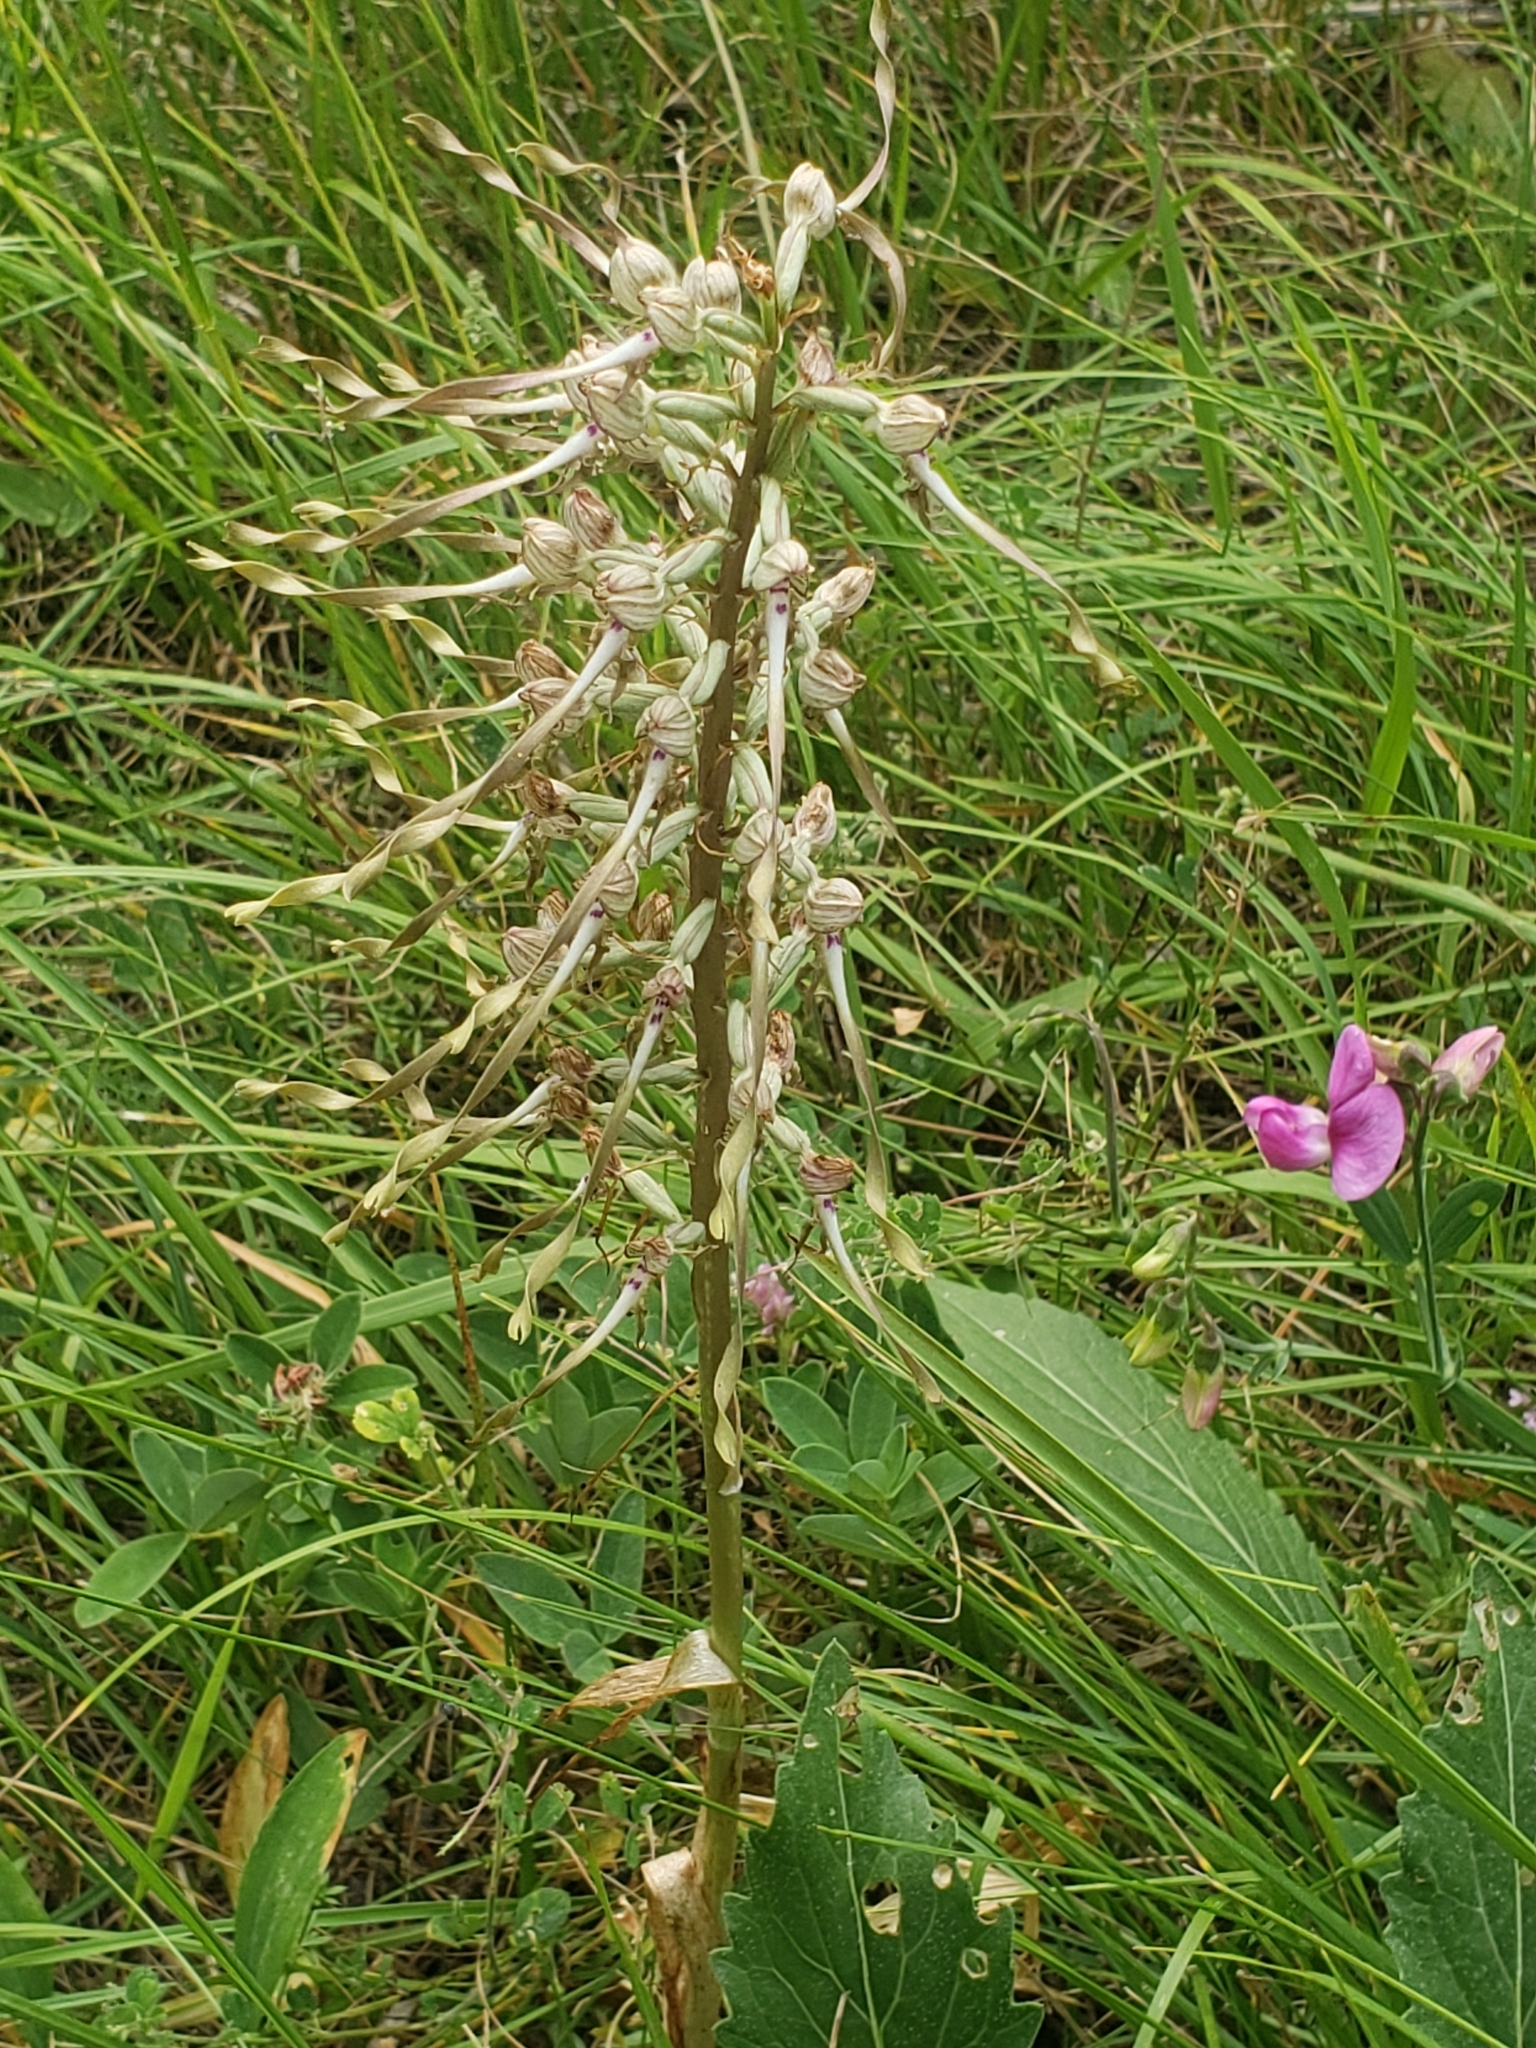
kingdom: Plantae
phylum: Tracheophyta
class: Liliopsida
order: Asparagales
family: Orchidaceae
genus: Himantoglossum
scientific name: Himantoglossum hircinum
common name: Lizard orchid
